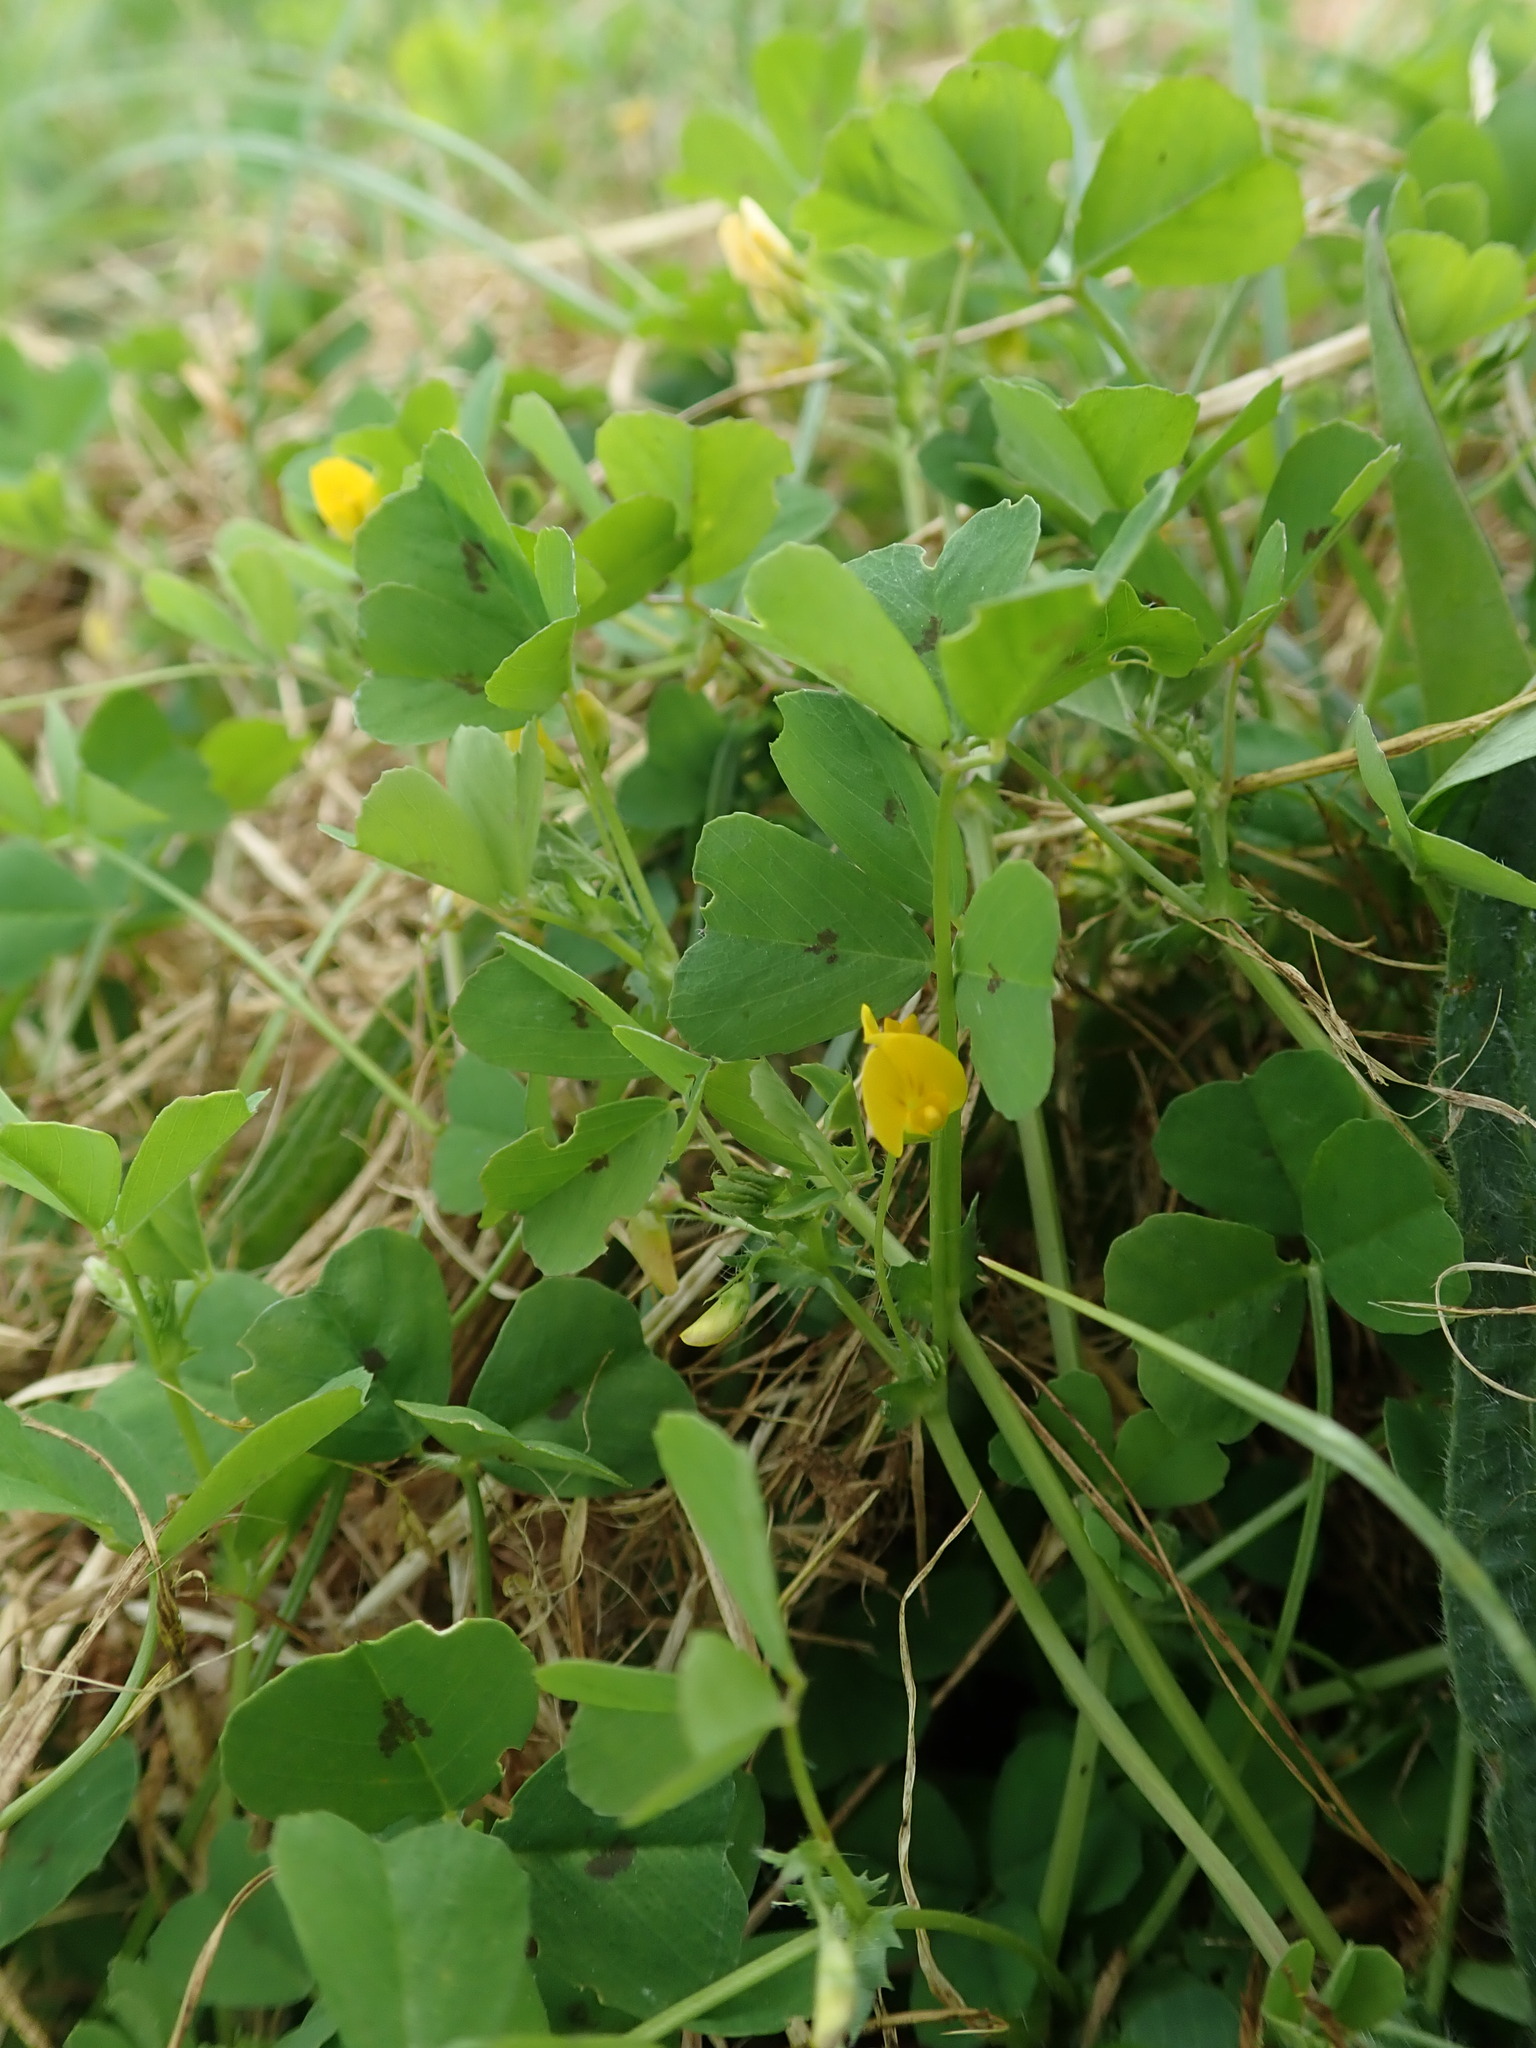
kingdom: Plantae
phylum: Tracheophyta
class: Magnoliopsida
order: Fabales
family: Fabaceae
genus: Medicago
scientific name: Medicago arabica
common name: Spotted medick
